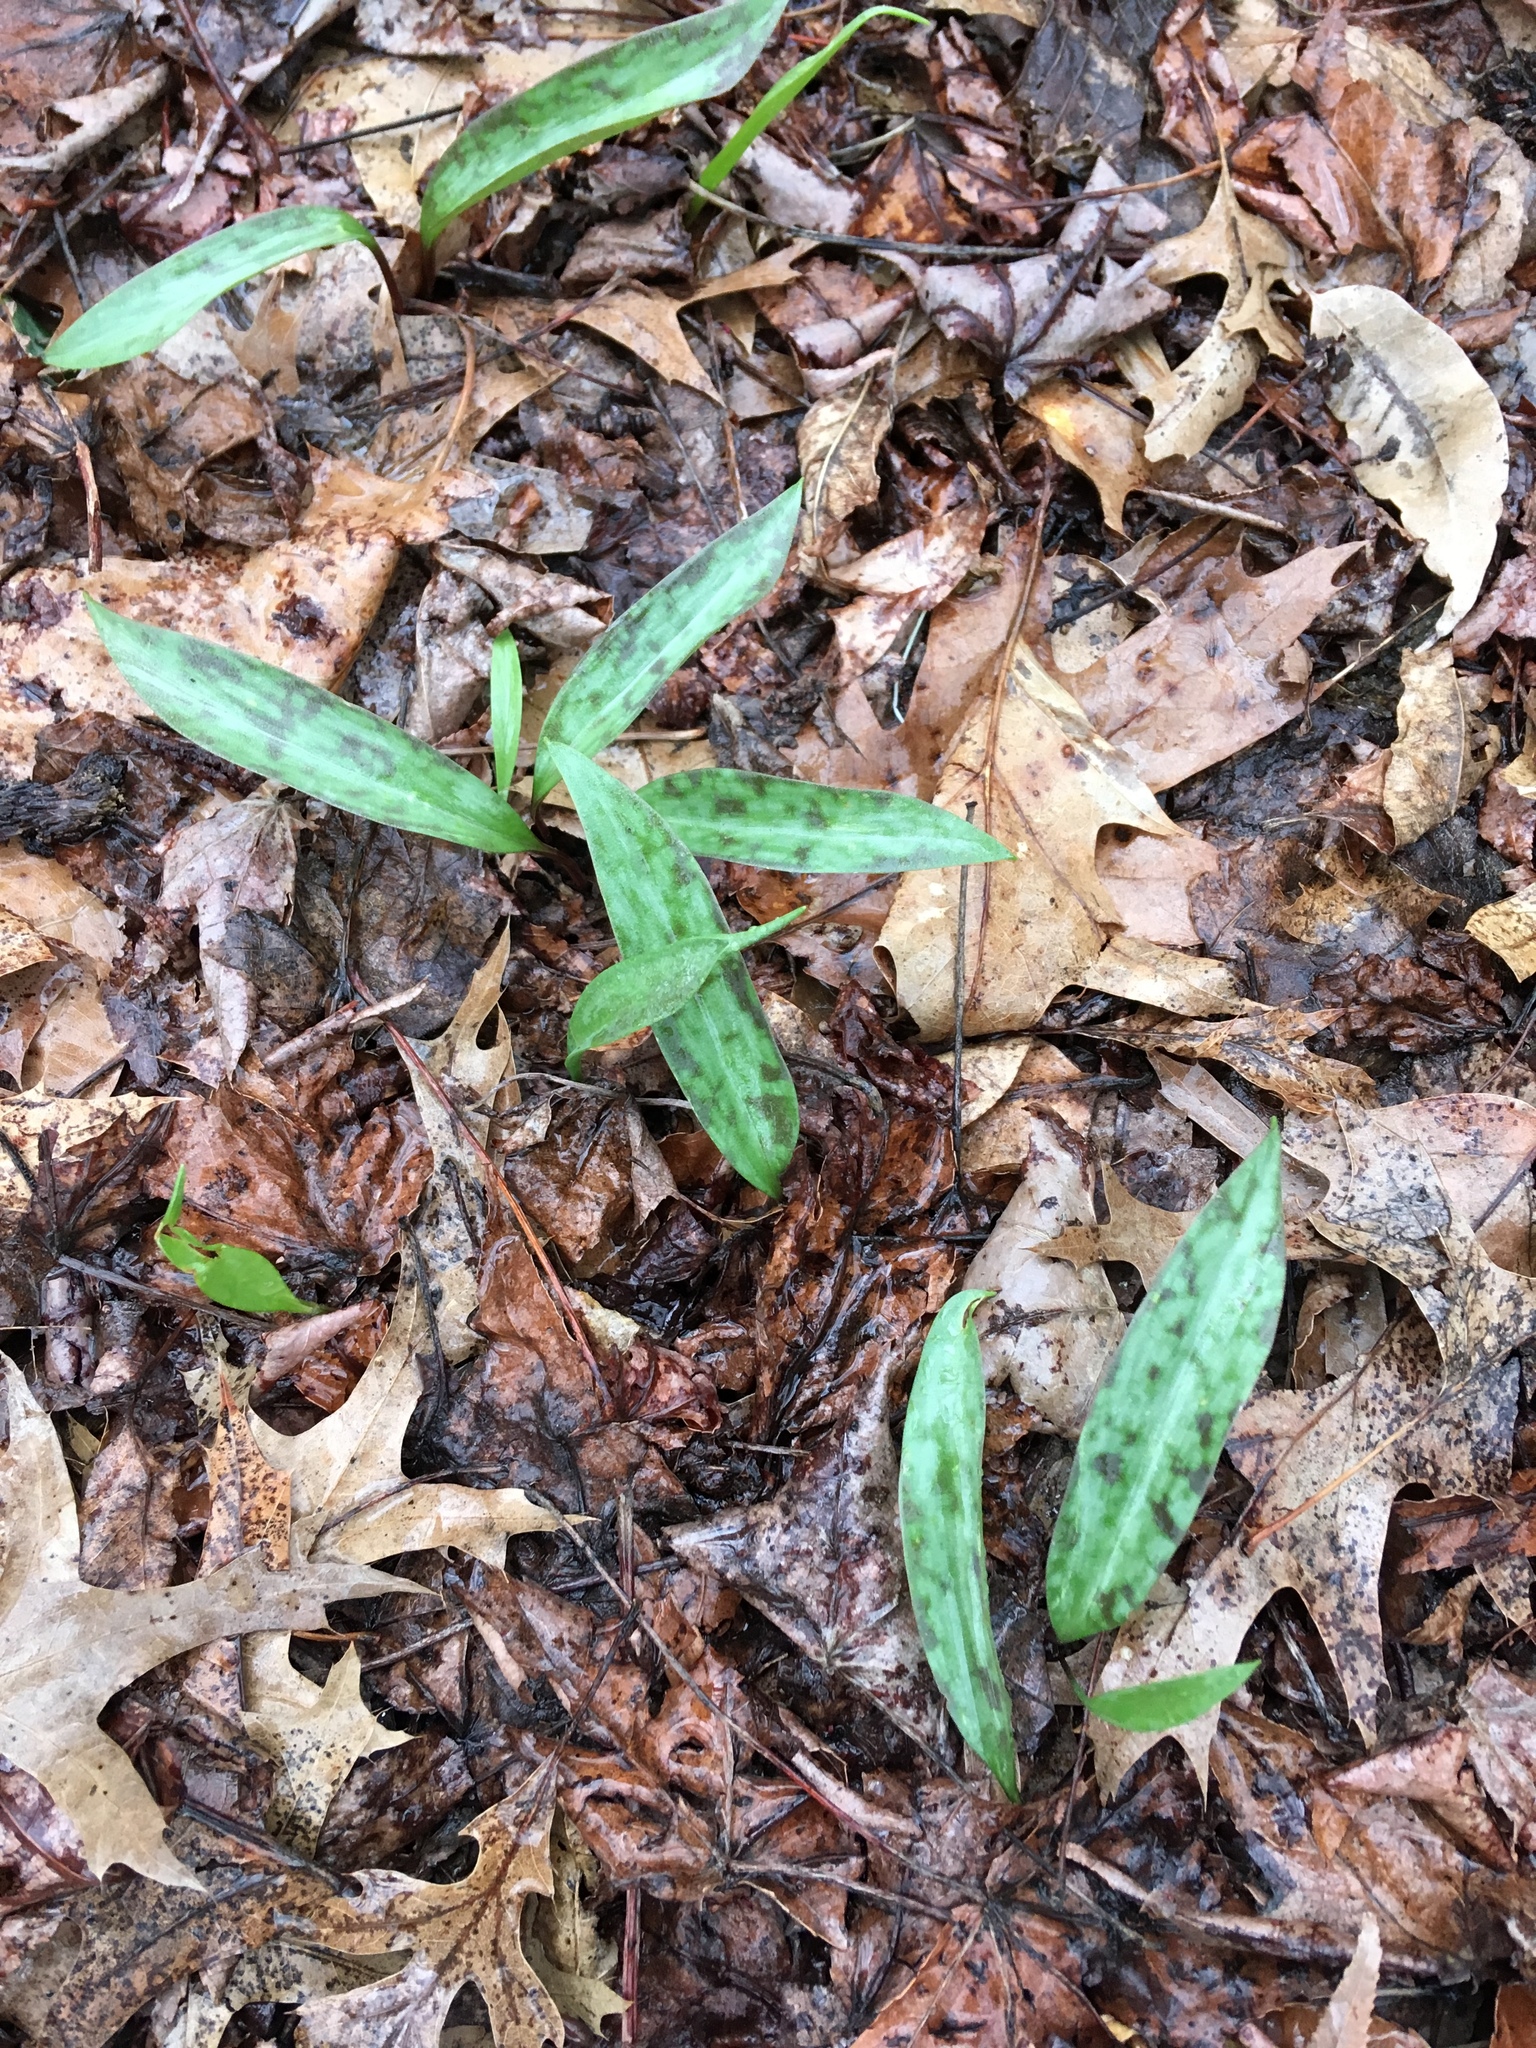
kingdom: Plantae
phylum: Tracheophyta
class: Liliopsida
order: Liliales
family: Liliaceae
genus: Erythronium
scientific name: Erythronium americanum
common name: Yellow adder's-tongue
